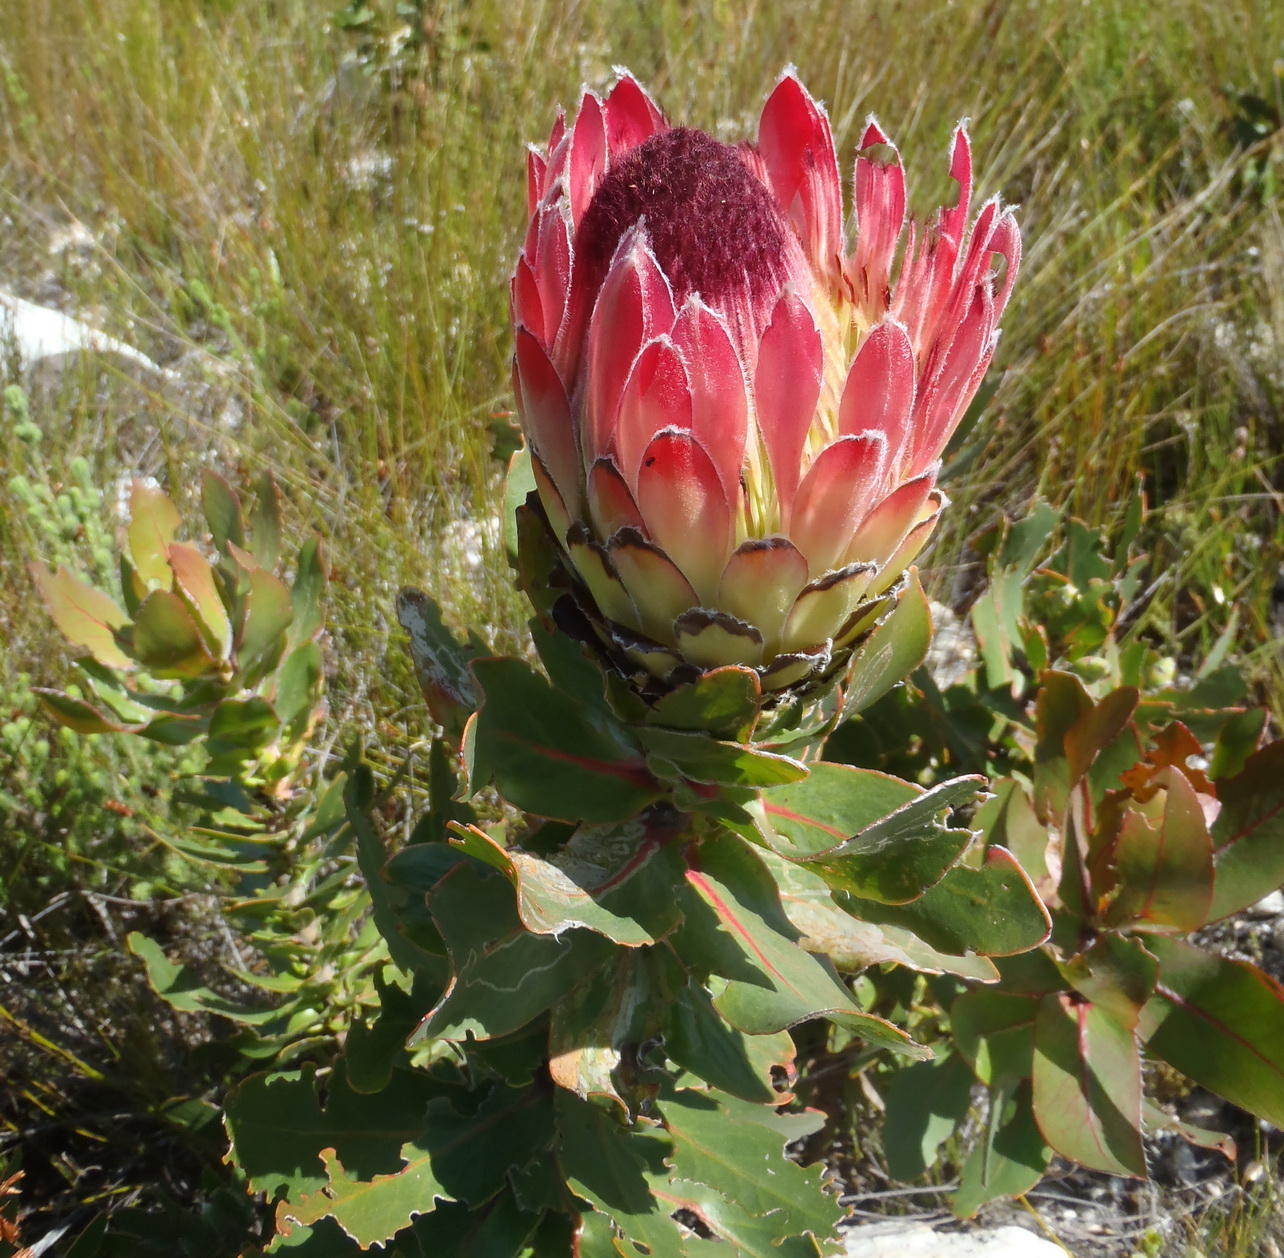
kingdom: Plantae
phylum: Tracheophyta
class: Magnoliopsida
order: Proteales
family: Proteaceae
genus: Protea
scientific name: Protea eximia
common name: Broad-leaved sugarbush
